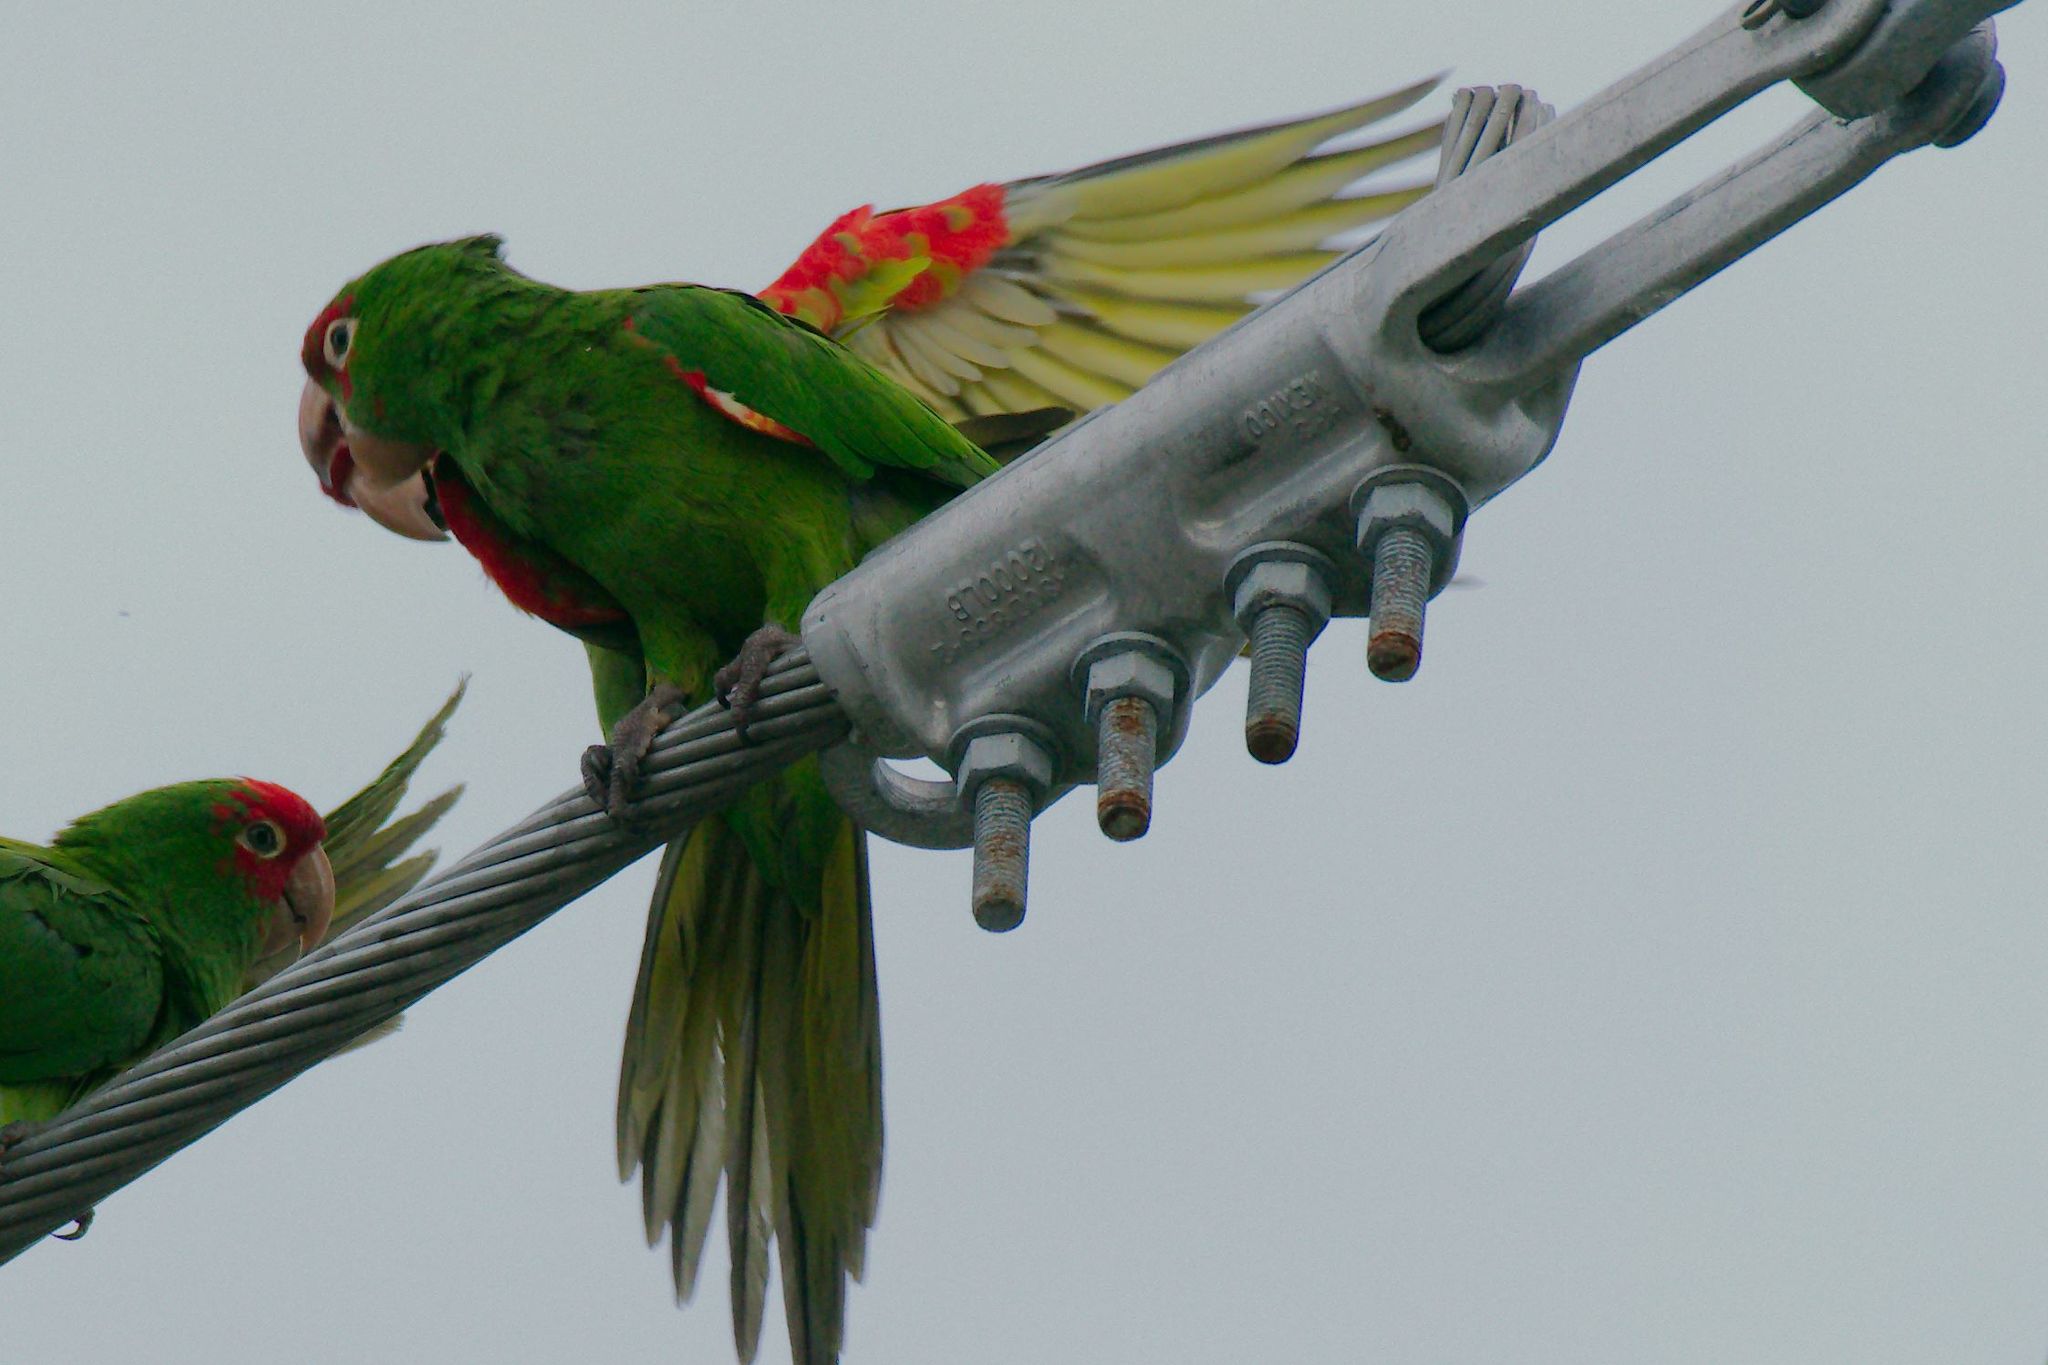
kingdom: Animalia
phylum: Chordata
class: Aves
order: Psittaciformes
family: Psittacidae
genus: Aratinga
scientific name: Aratinga erythrogenys
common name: Red-masked parakeet
